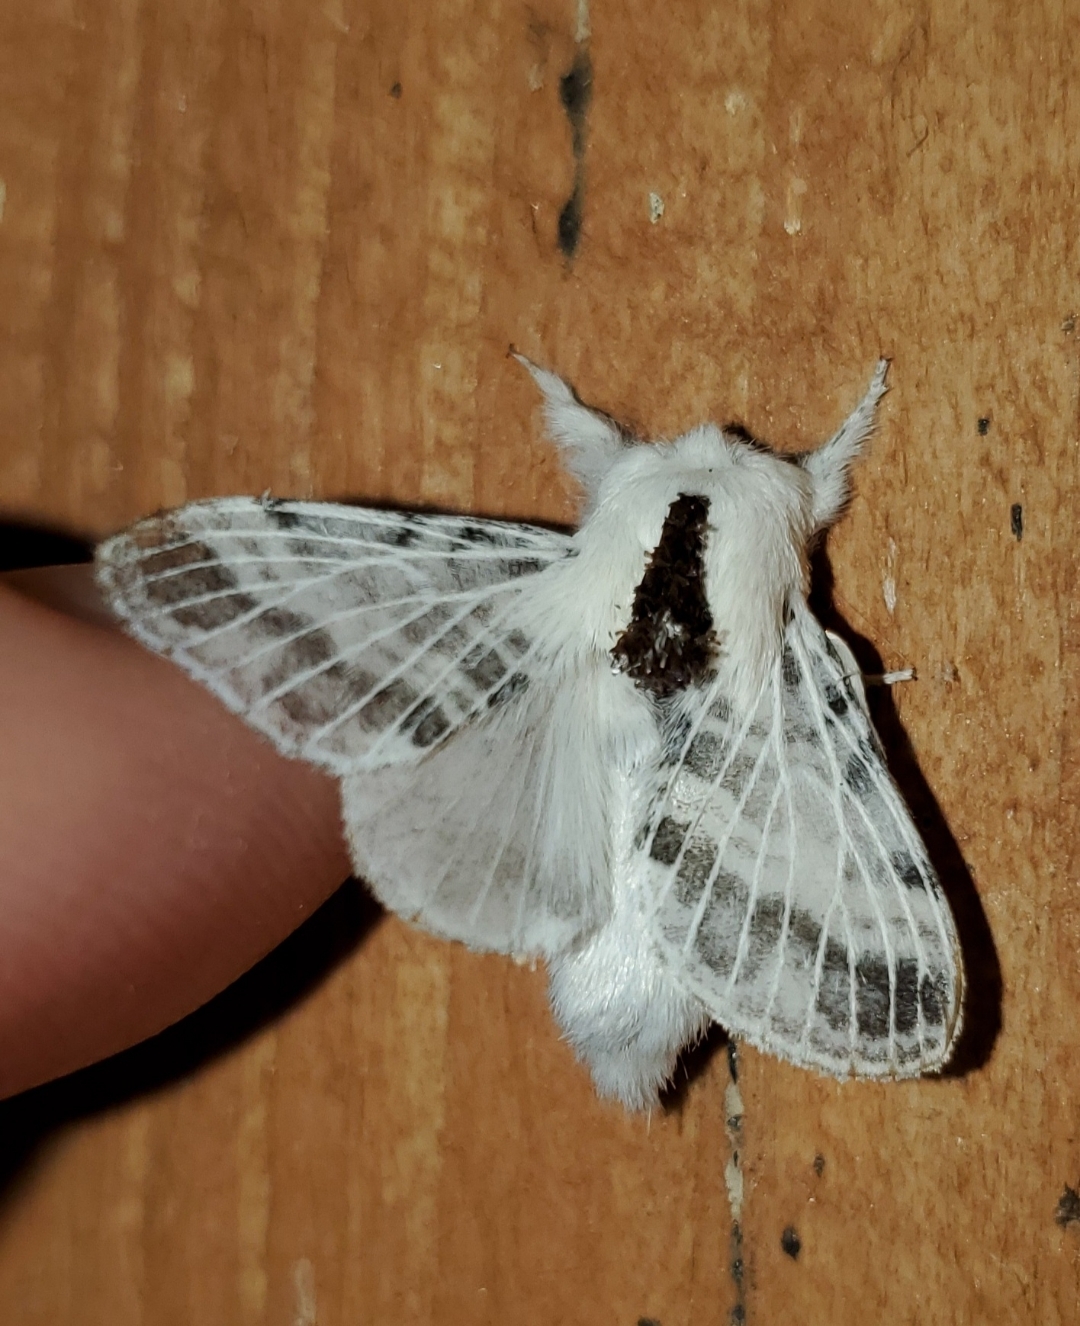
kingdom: Animalia
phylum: Arthropoda
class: Insecta
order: Lepidoptera
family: Lasiocampidae
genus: Tolype
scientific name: Tolype minta
